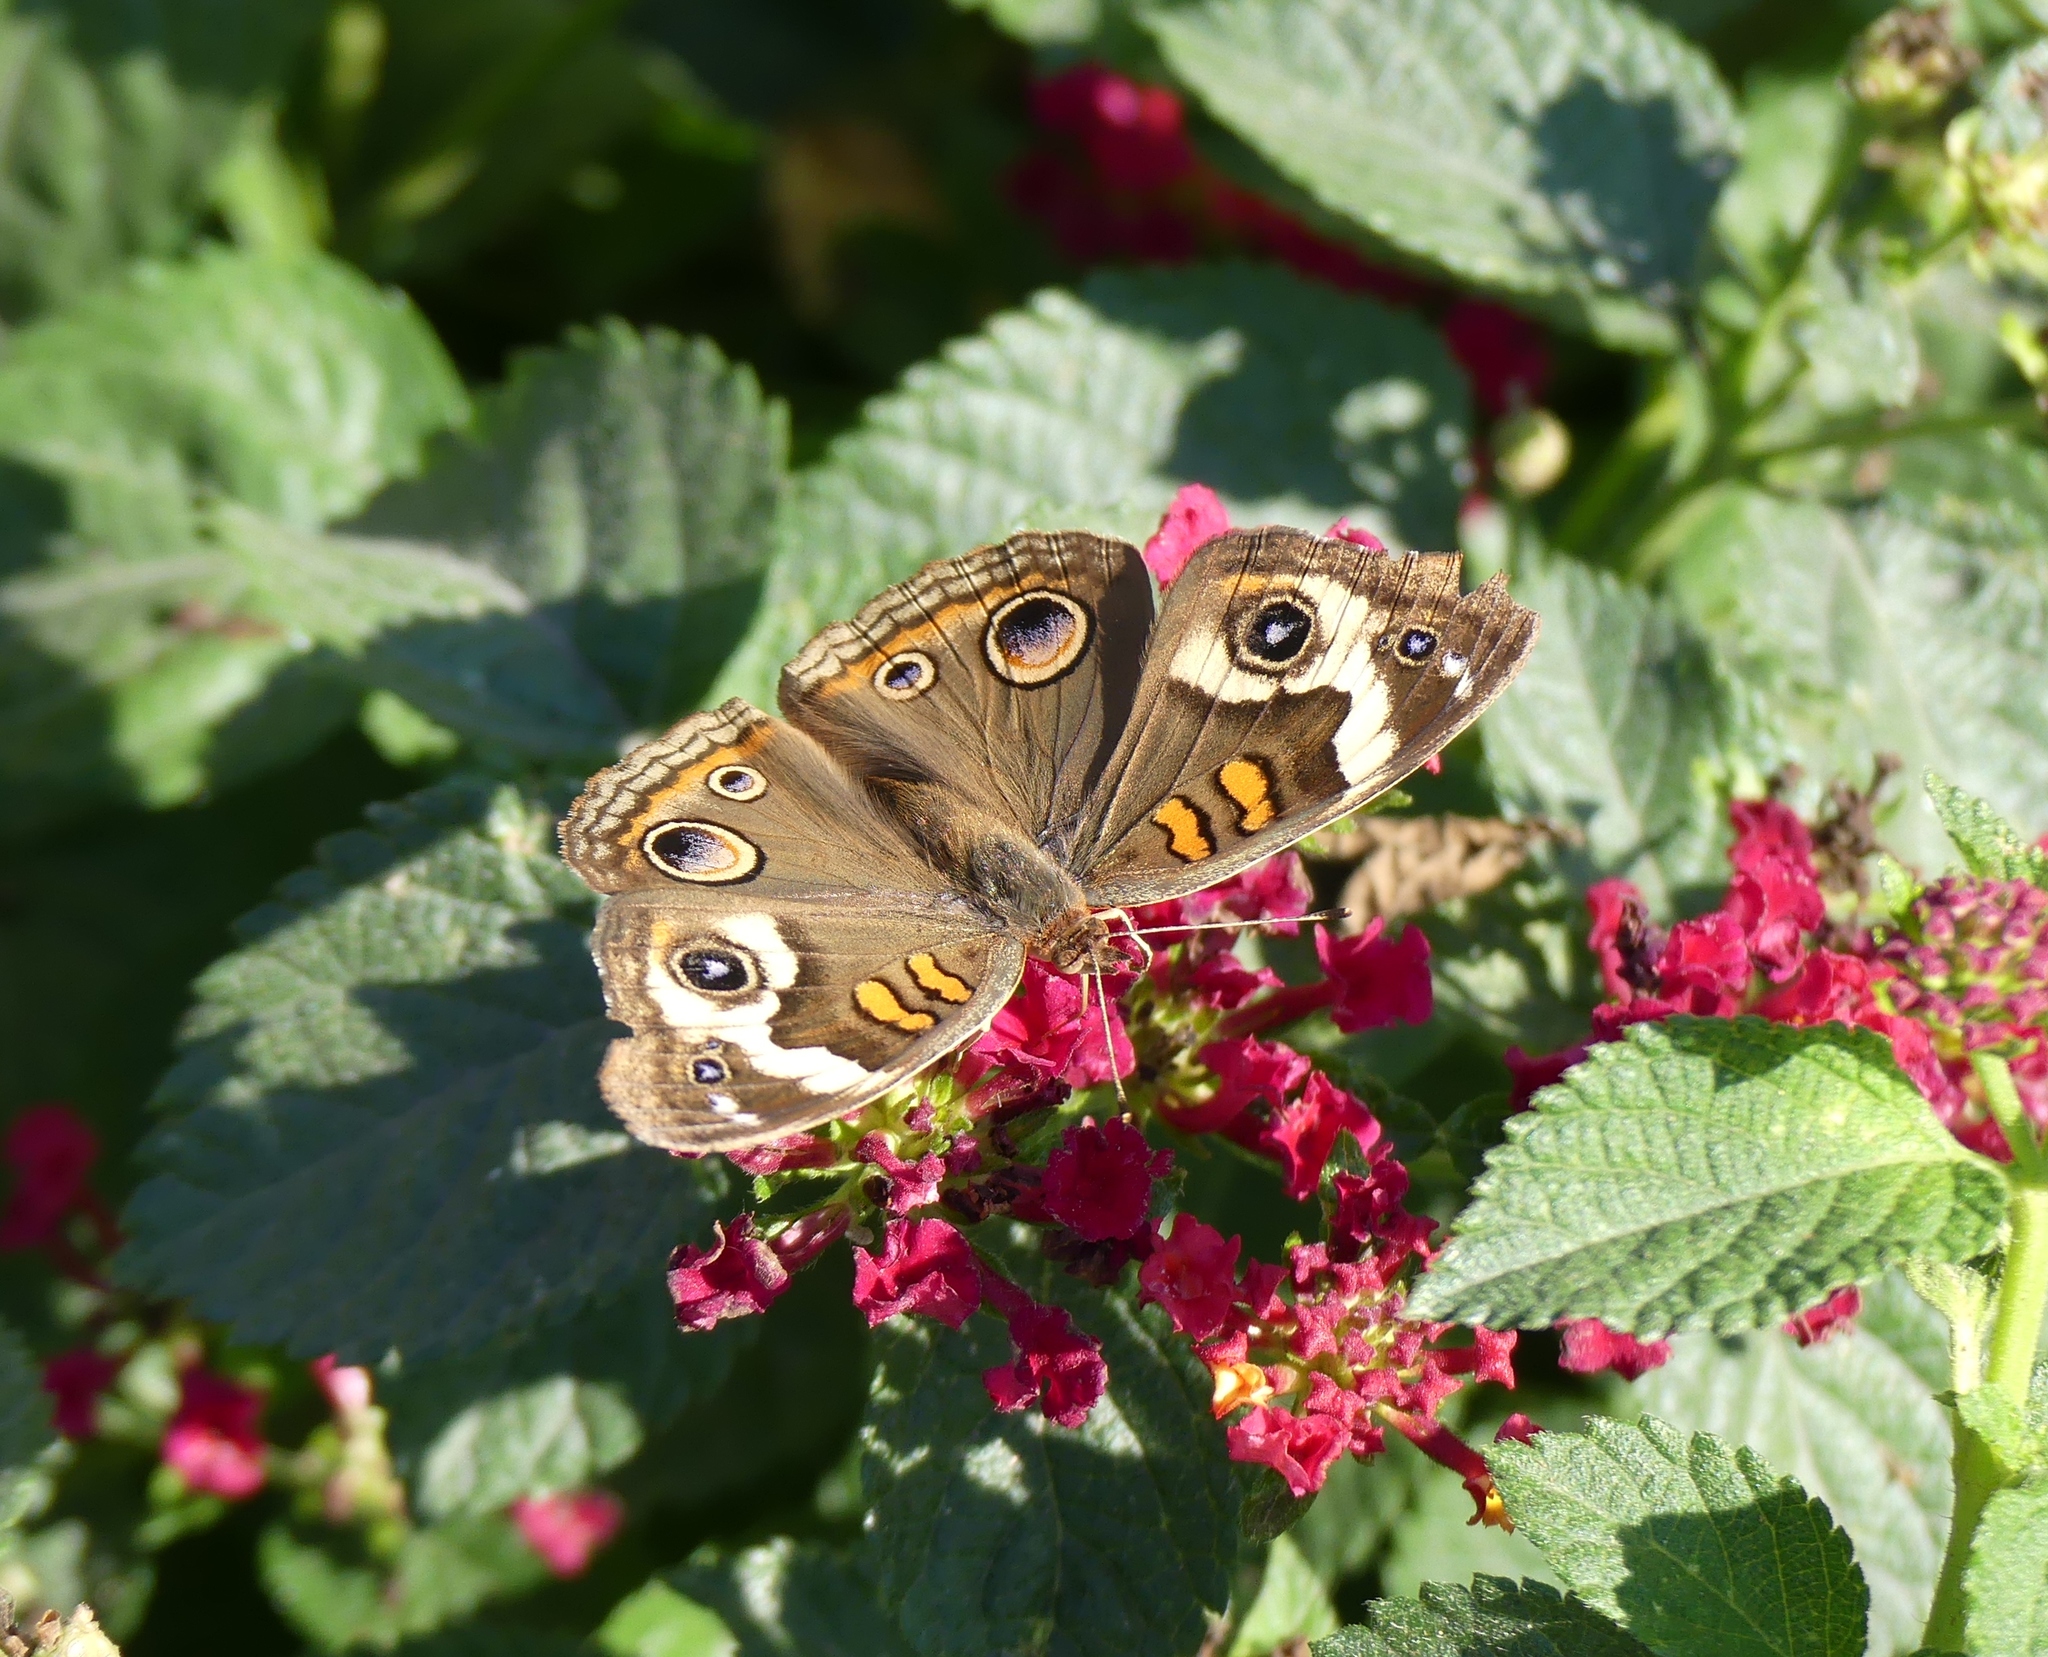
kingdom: Animalia
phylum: Arthropoda
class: Insecta
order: Lepidoptera
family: Nymphalidae
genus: Junonia
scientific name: Junonia coenia
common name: Common buckeye
